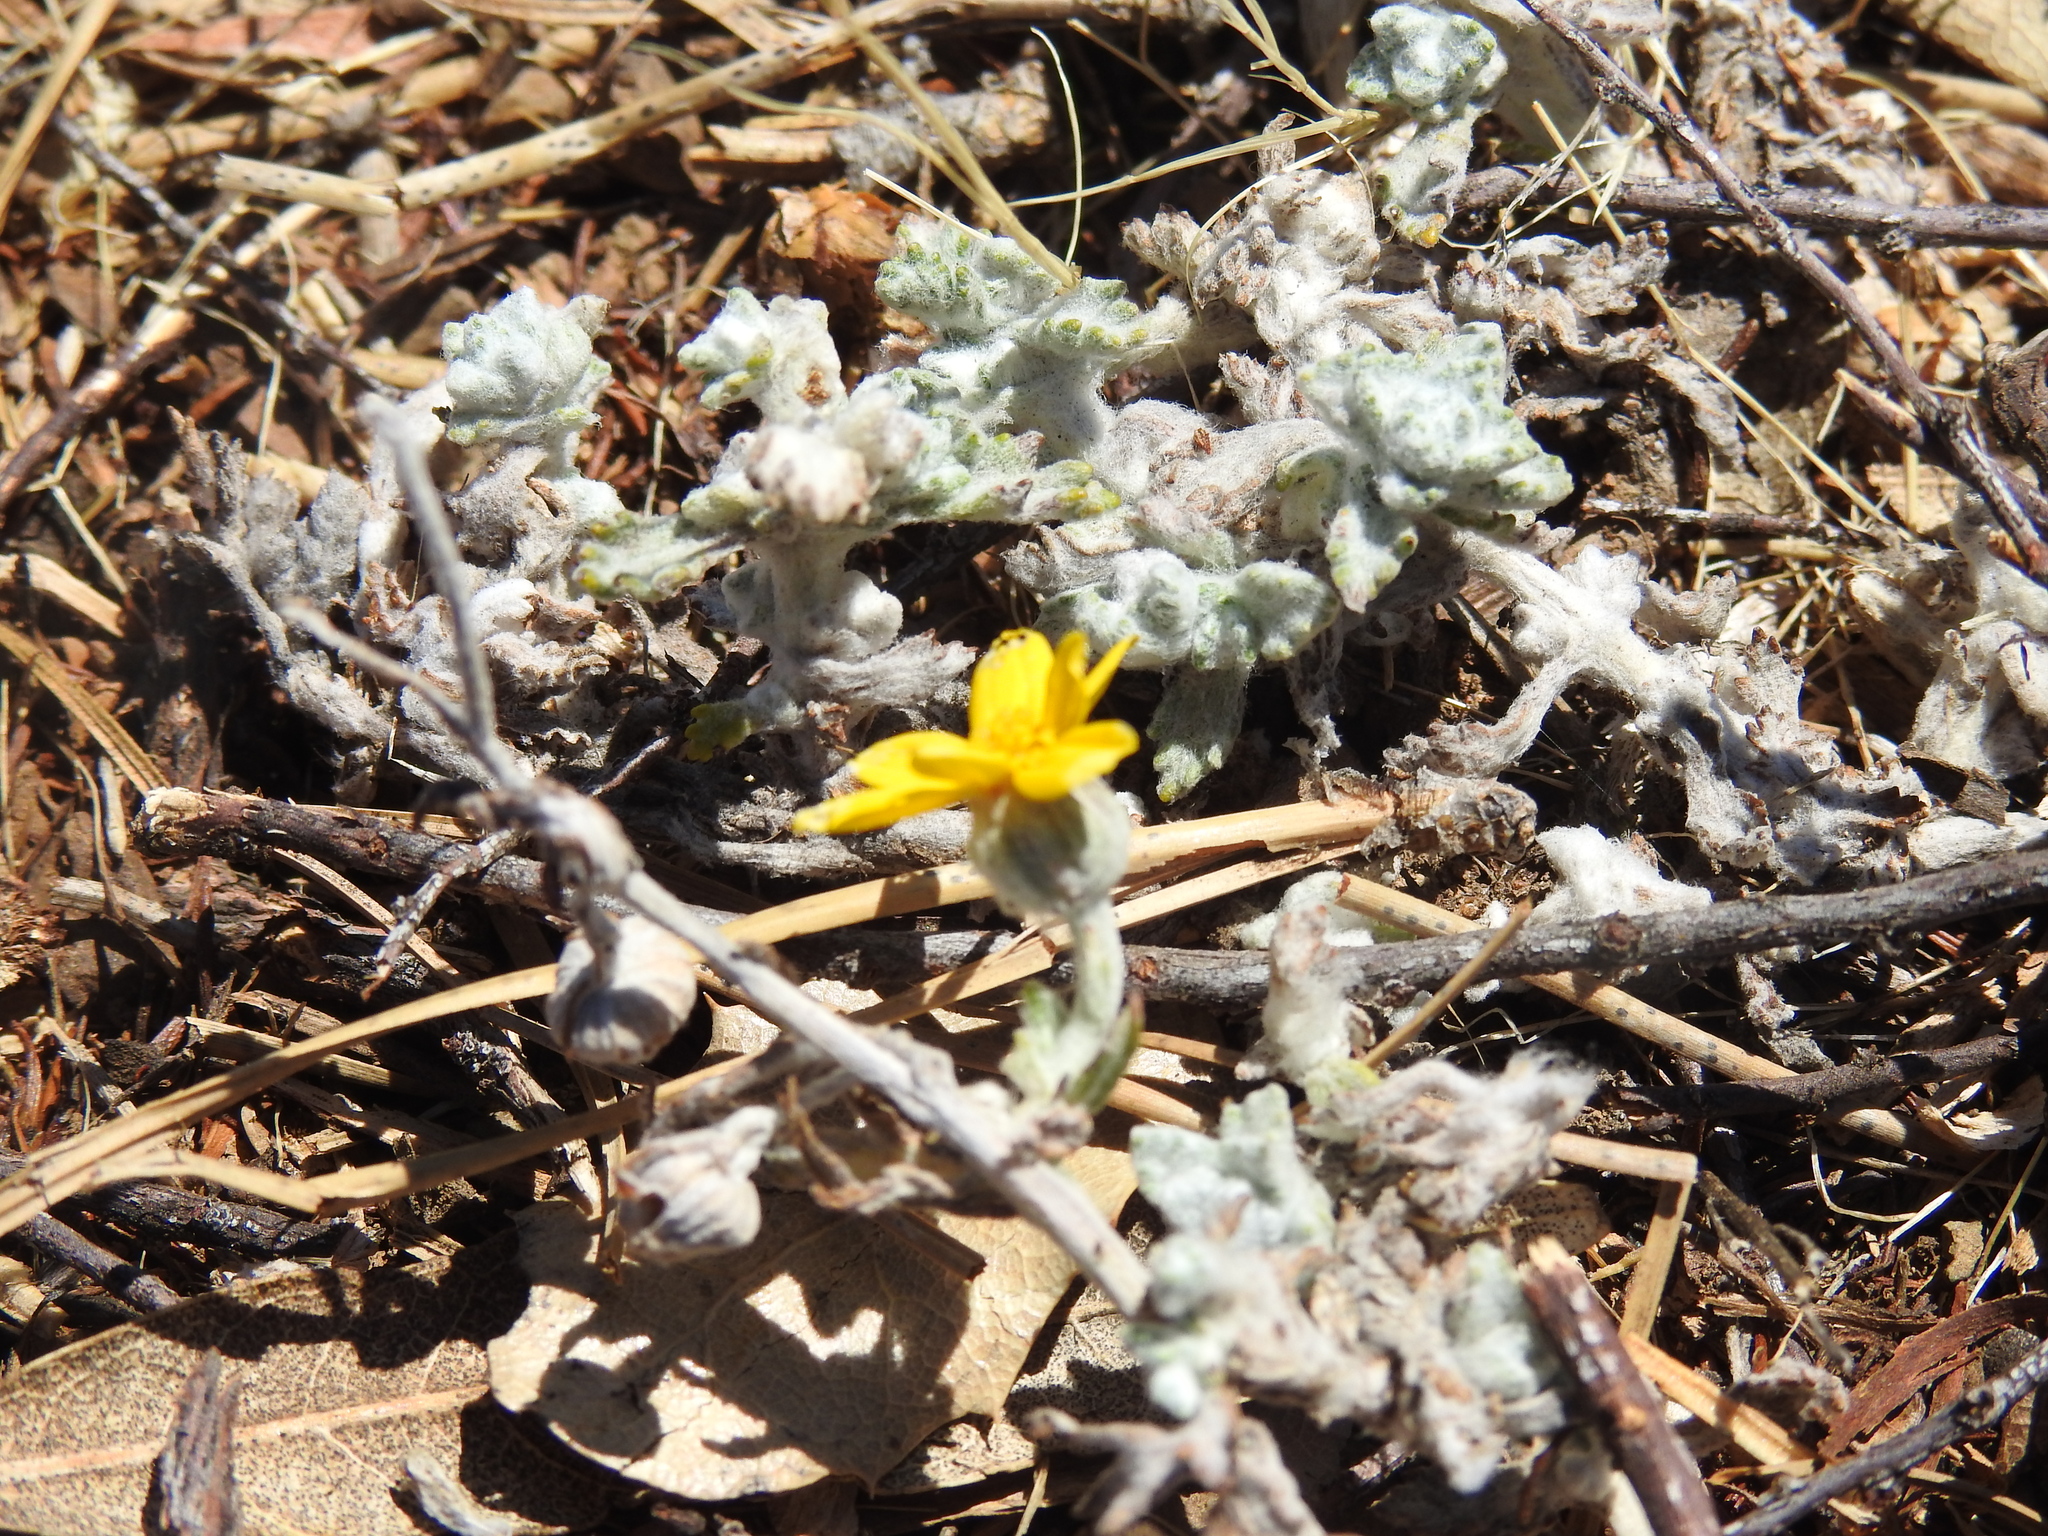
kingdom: Plantae
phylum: Tracheophyta
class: Magnoliopsida
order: Asterales
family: Asteraceae
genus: Eriophyllum
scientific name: Eriophyllum lanatum
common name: Common woolly-sunflower
